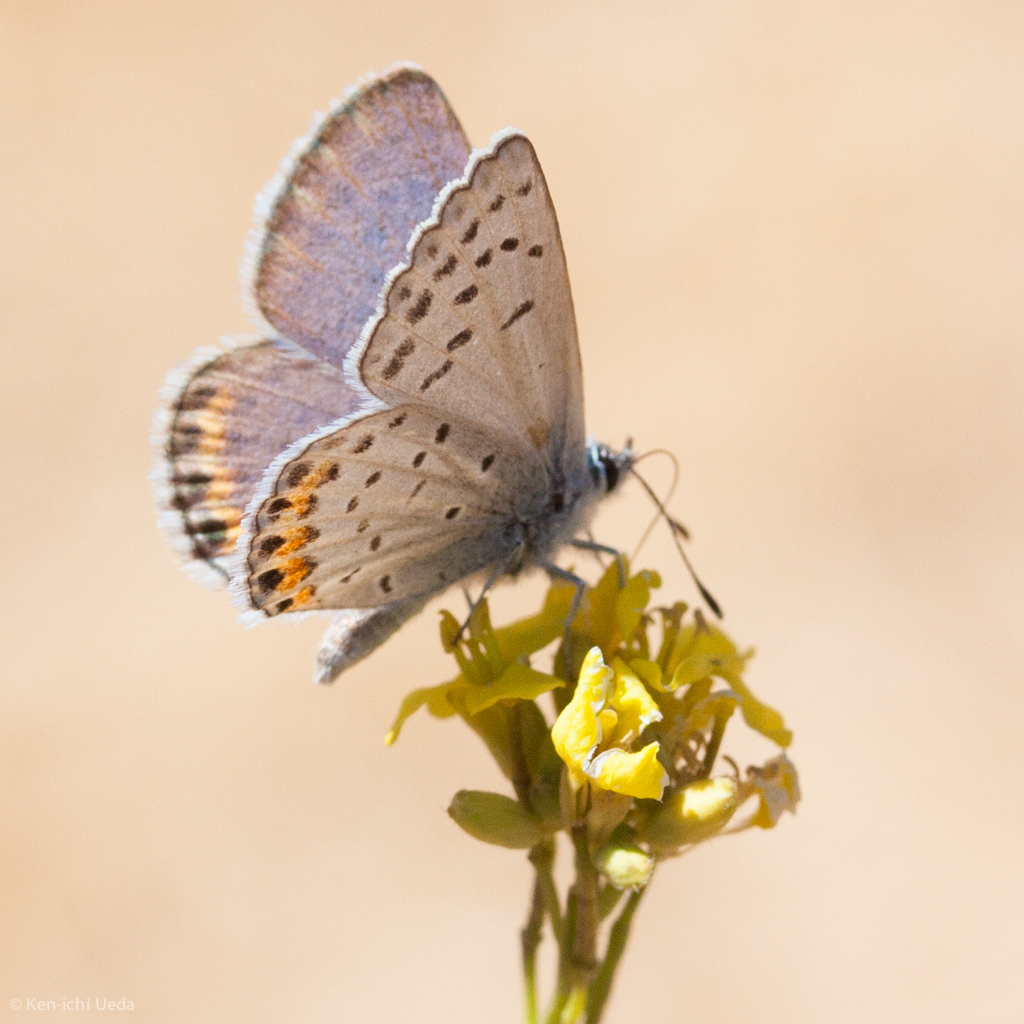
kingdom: Animalia
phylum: Arthropoda
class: Insecta
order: Lepidoptera
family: Lycaenidae
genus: Icaricia
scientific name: Icaricia acmon
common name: Acmon blue
